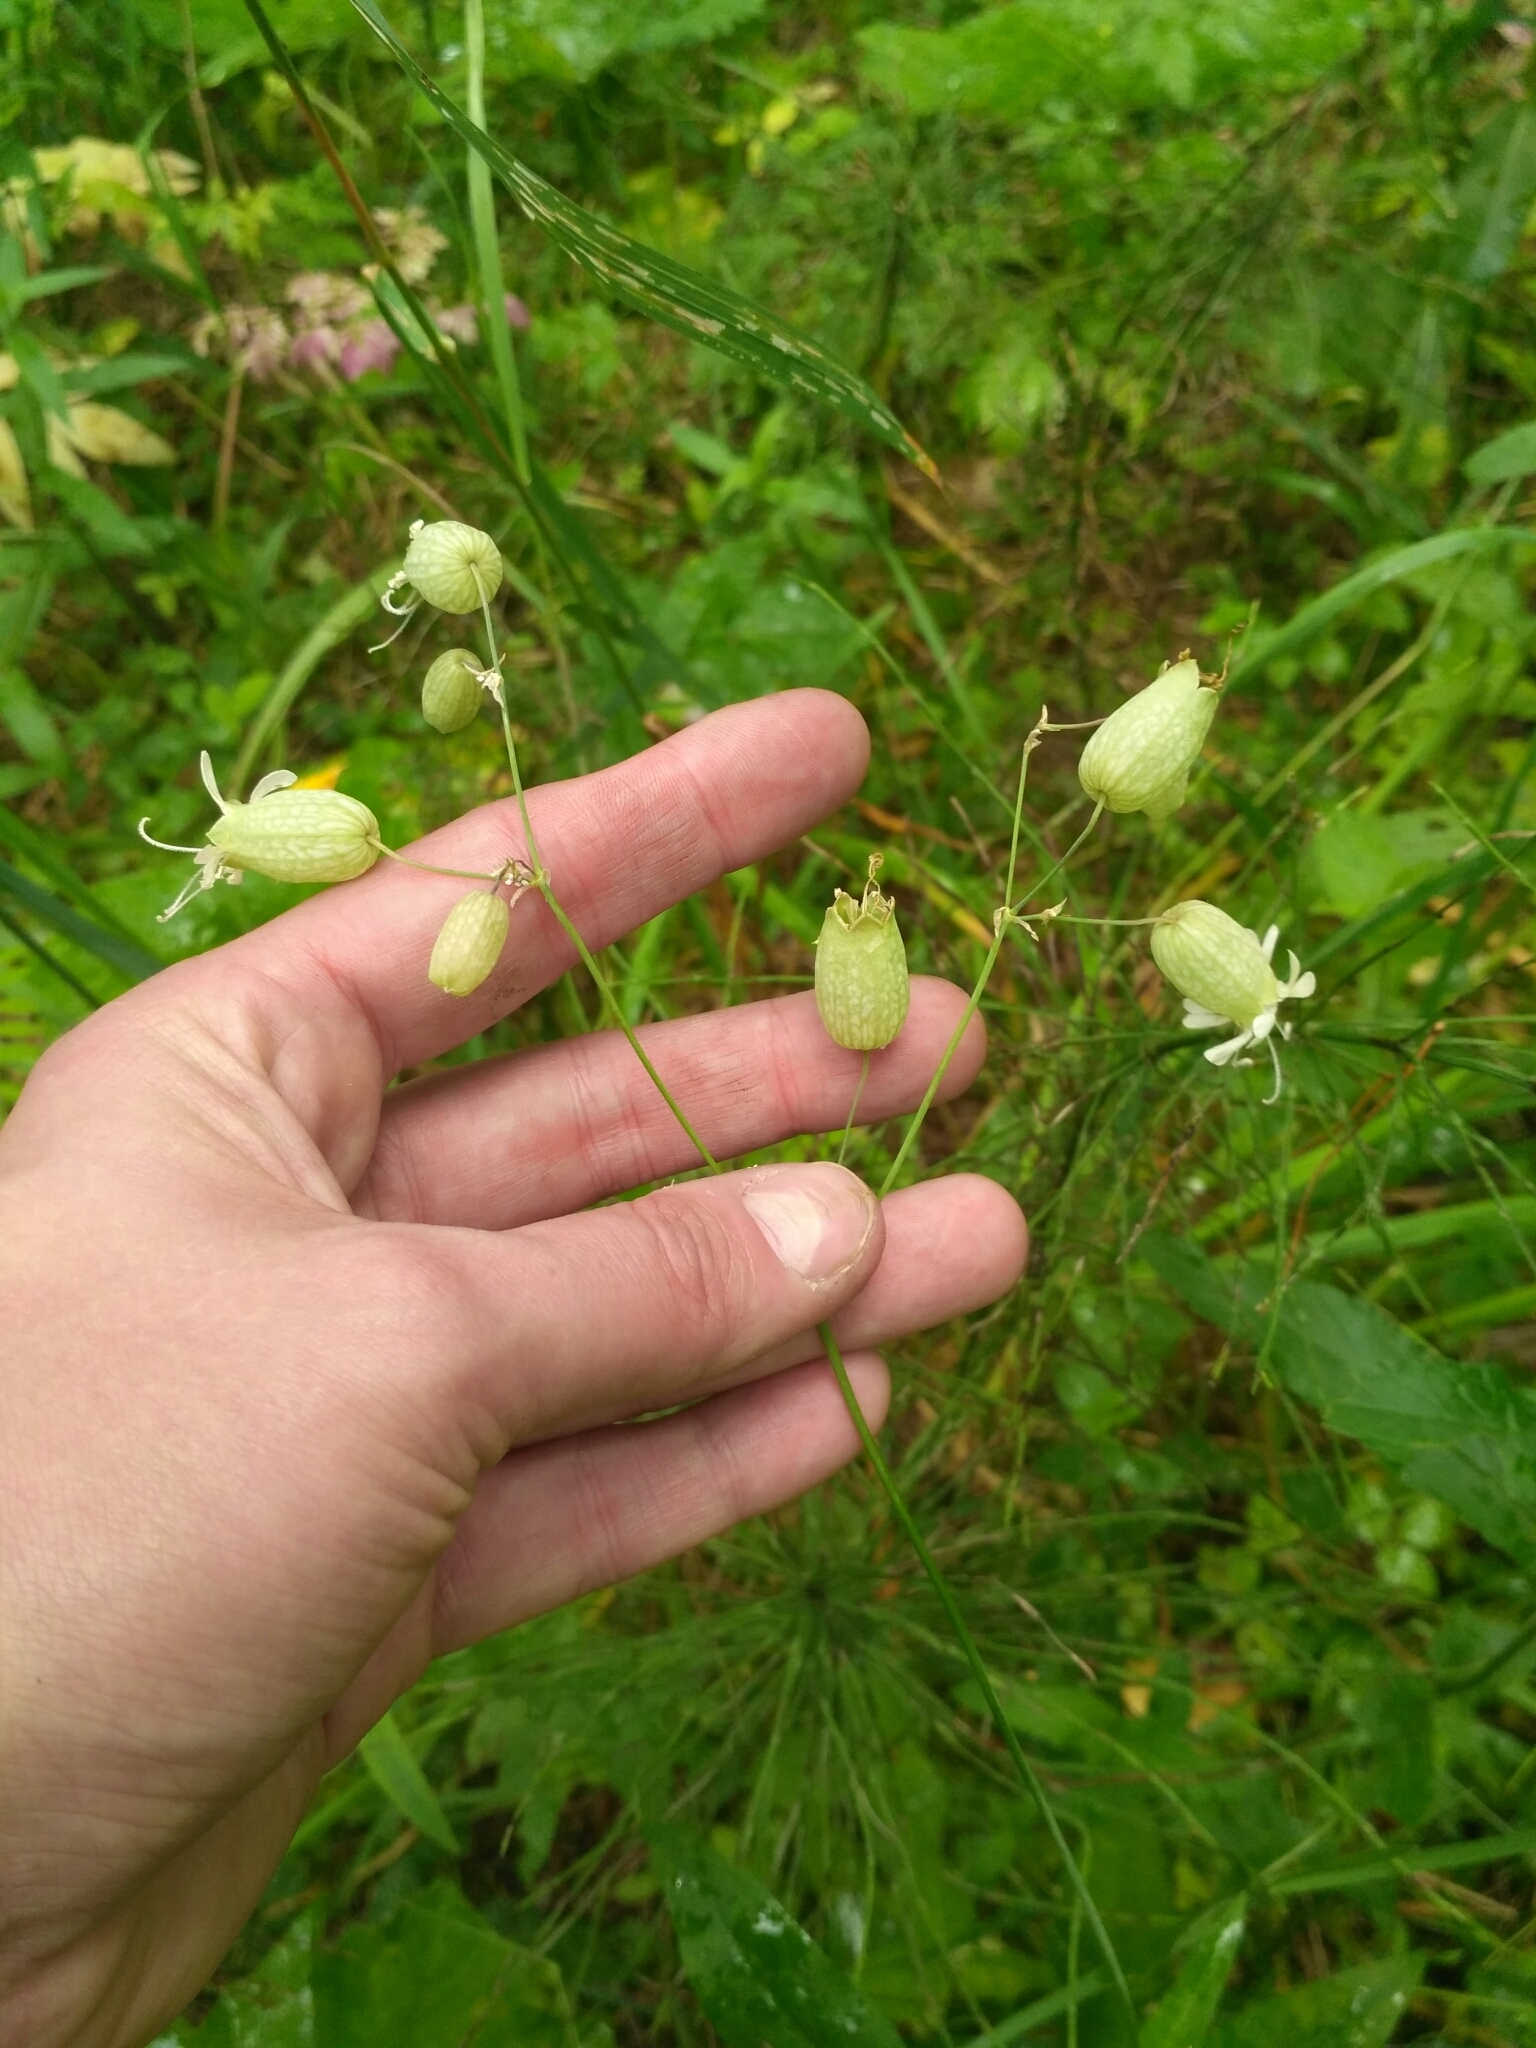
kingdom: Plantae
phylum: Tracheophyta
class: Magnoliopsida
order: Caryophyllales
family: Caryophyllaceae
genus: Silene
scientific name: Silene vulgaris
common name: Bladder campion
